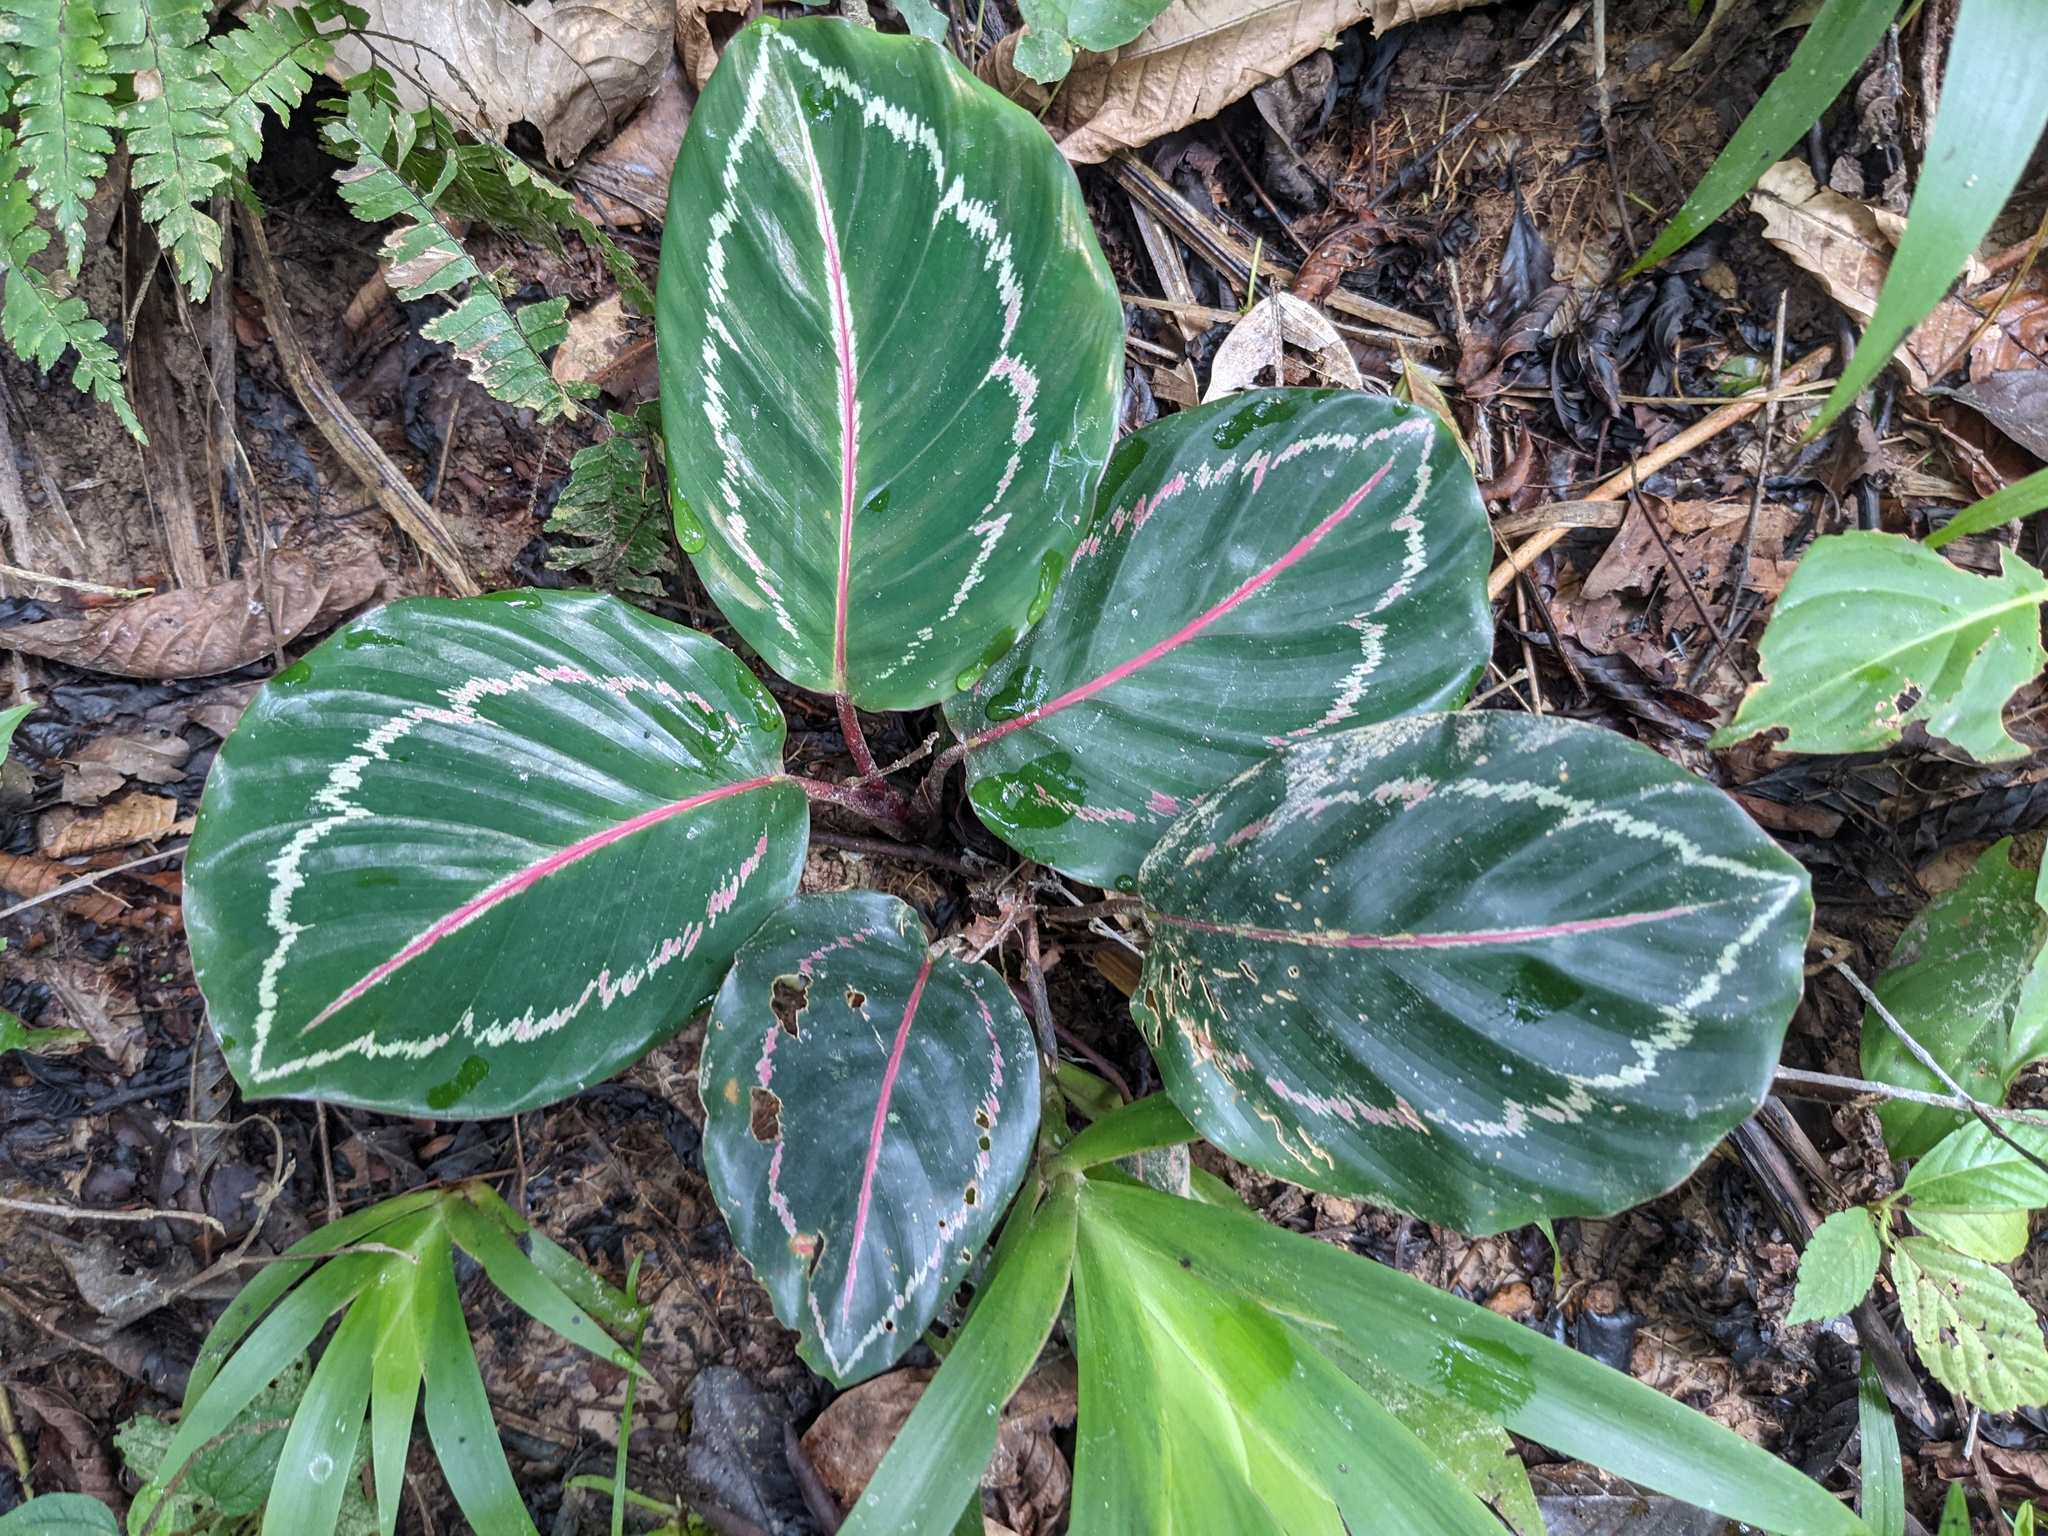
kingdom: Plantae
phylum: Tracheophyta
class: Liliopsida
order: Zingiberales
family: Marantaceae
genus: Goeppertia
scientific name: Goeppertia roseopicta
